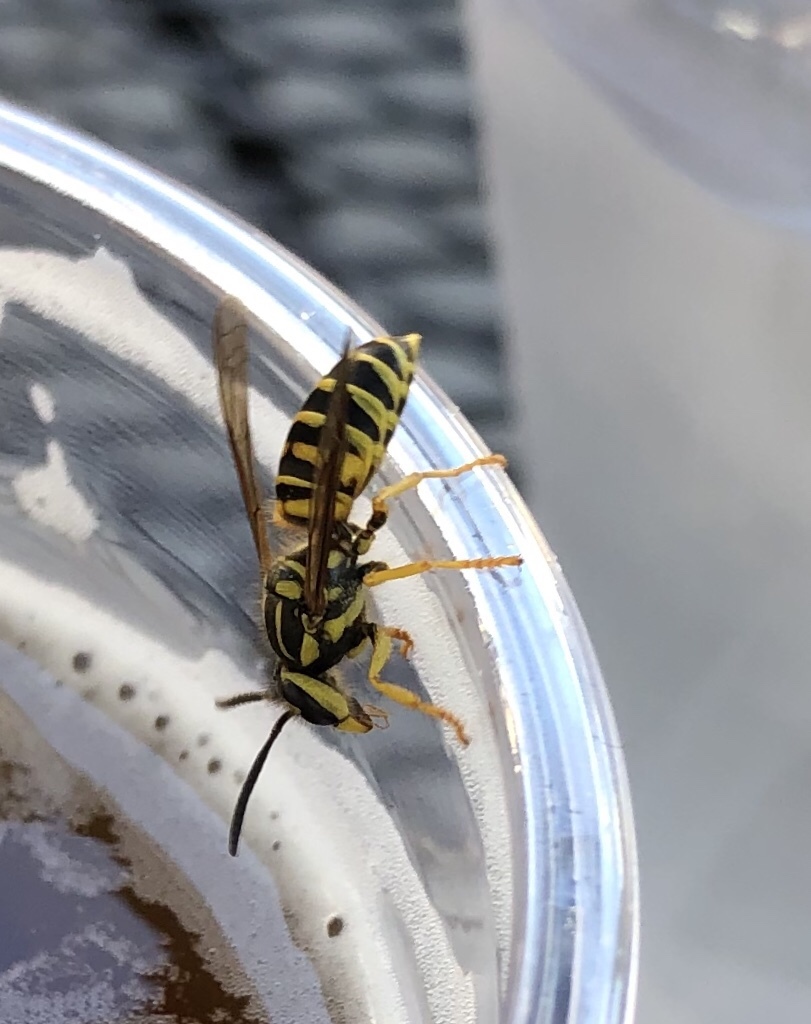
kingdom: Animalia
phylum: Arthropoda
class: Insecta
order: Hymenoptera
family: Vespidae
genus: Vespula
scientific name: Vespula squamosa
